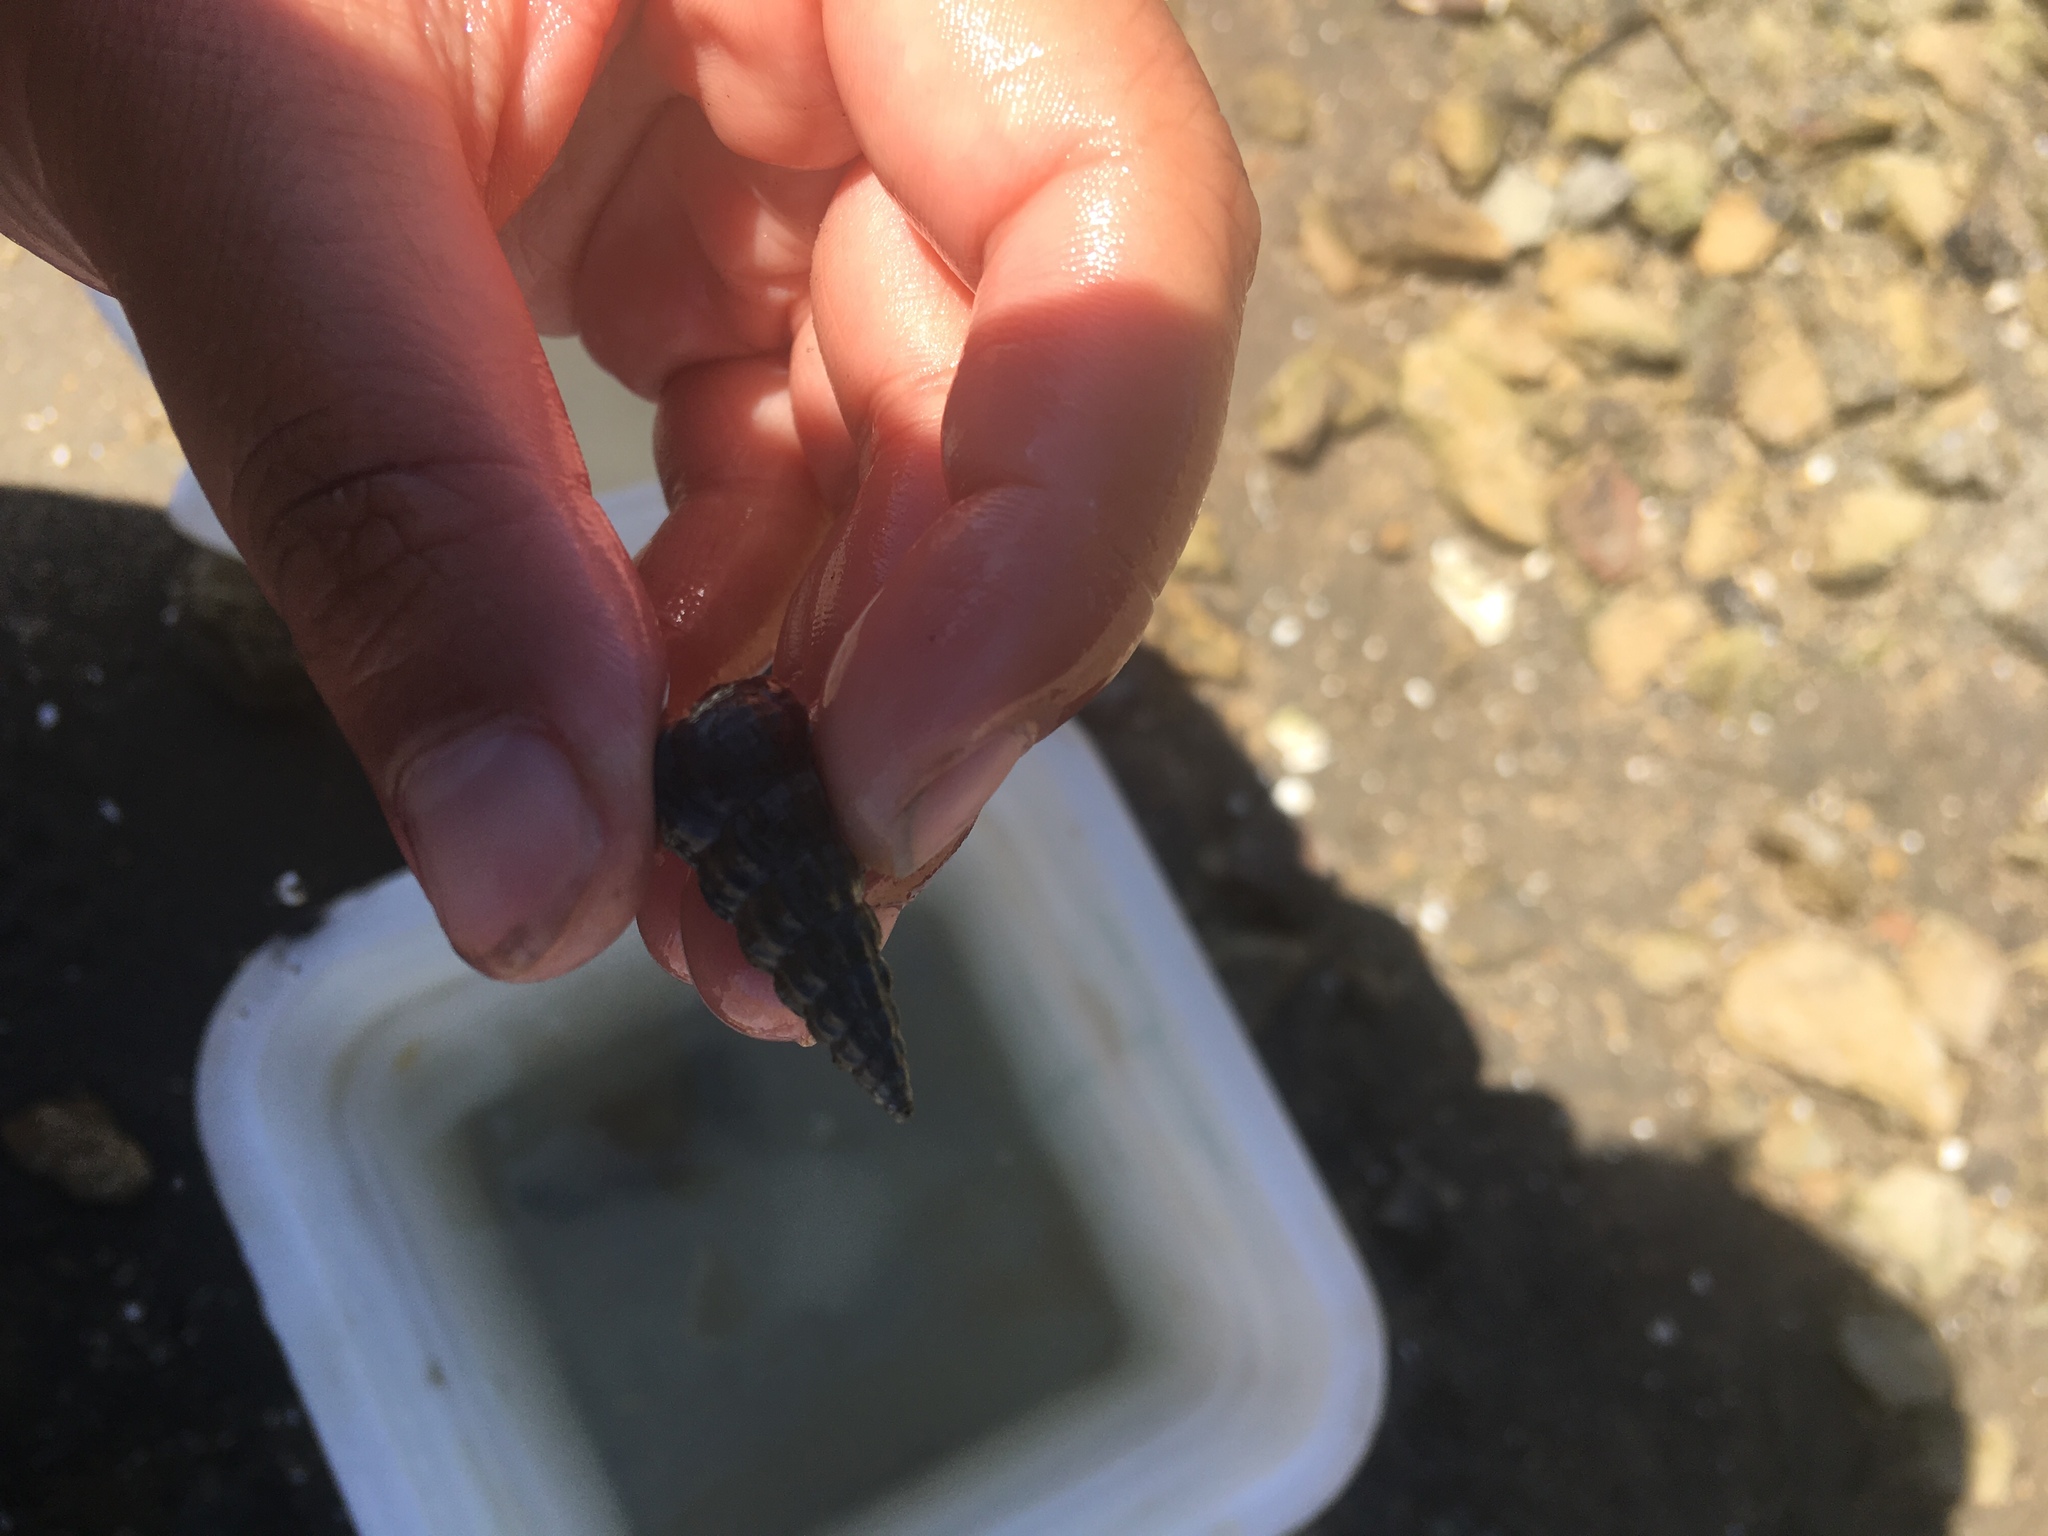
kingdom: Animalia
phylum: Mollusca
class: Gastropoda
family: Potamididae
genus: Cerithideopsis
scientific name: Cerithideopsis californica
